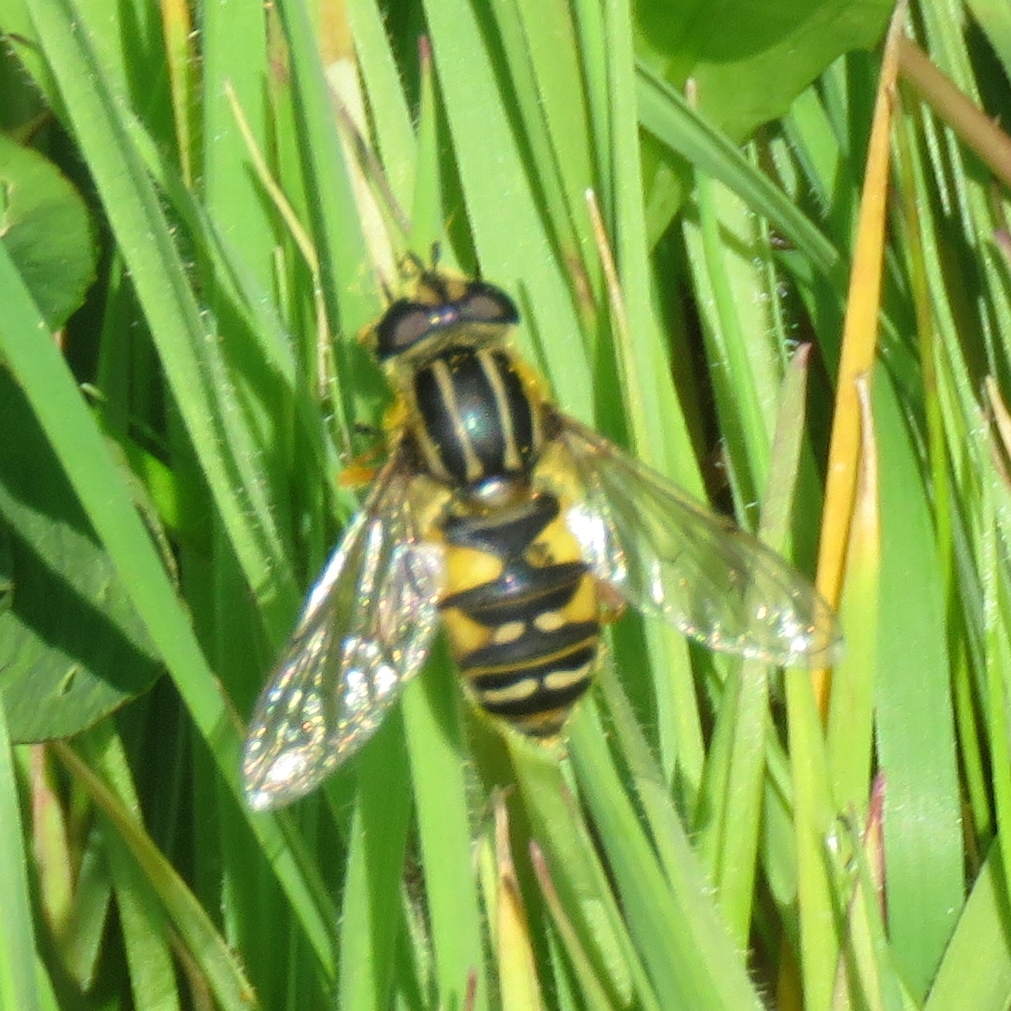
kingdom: Animalia
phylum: Arthropoda
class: Insecta
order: Diptera
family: Syrphidae
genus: Helophilus
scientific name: Helophilus pendulus
